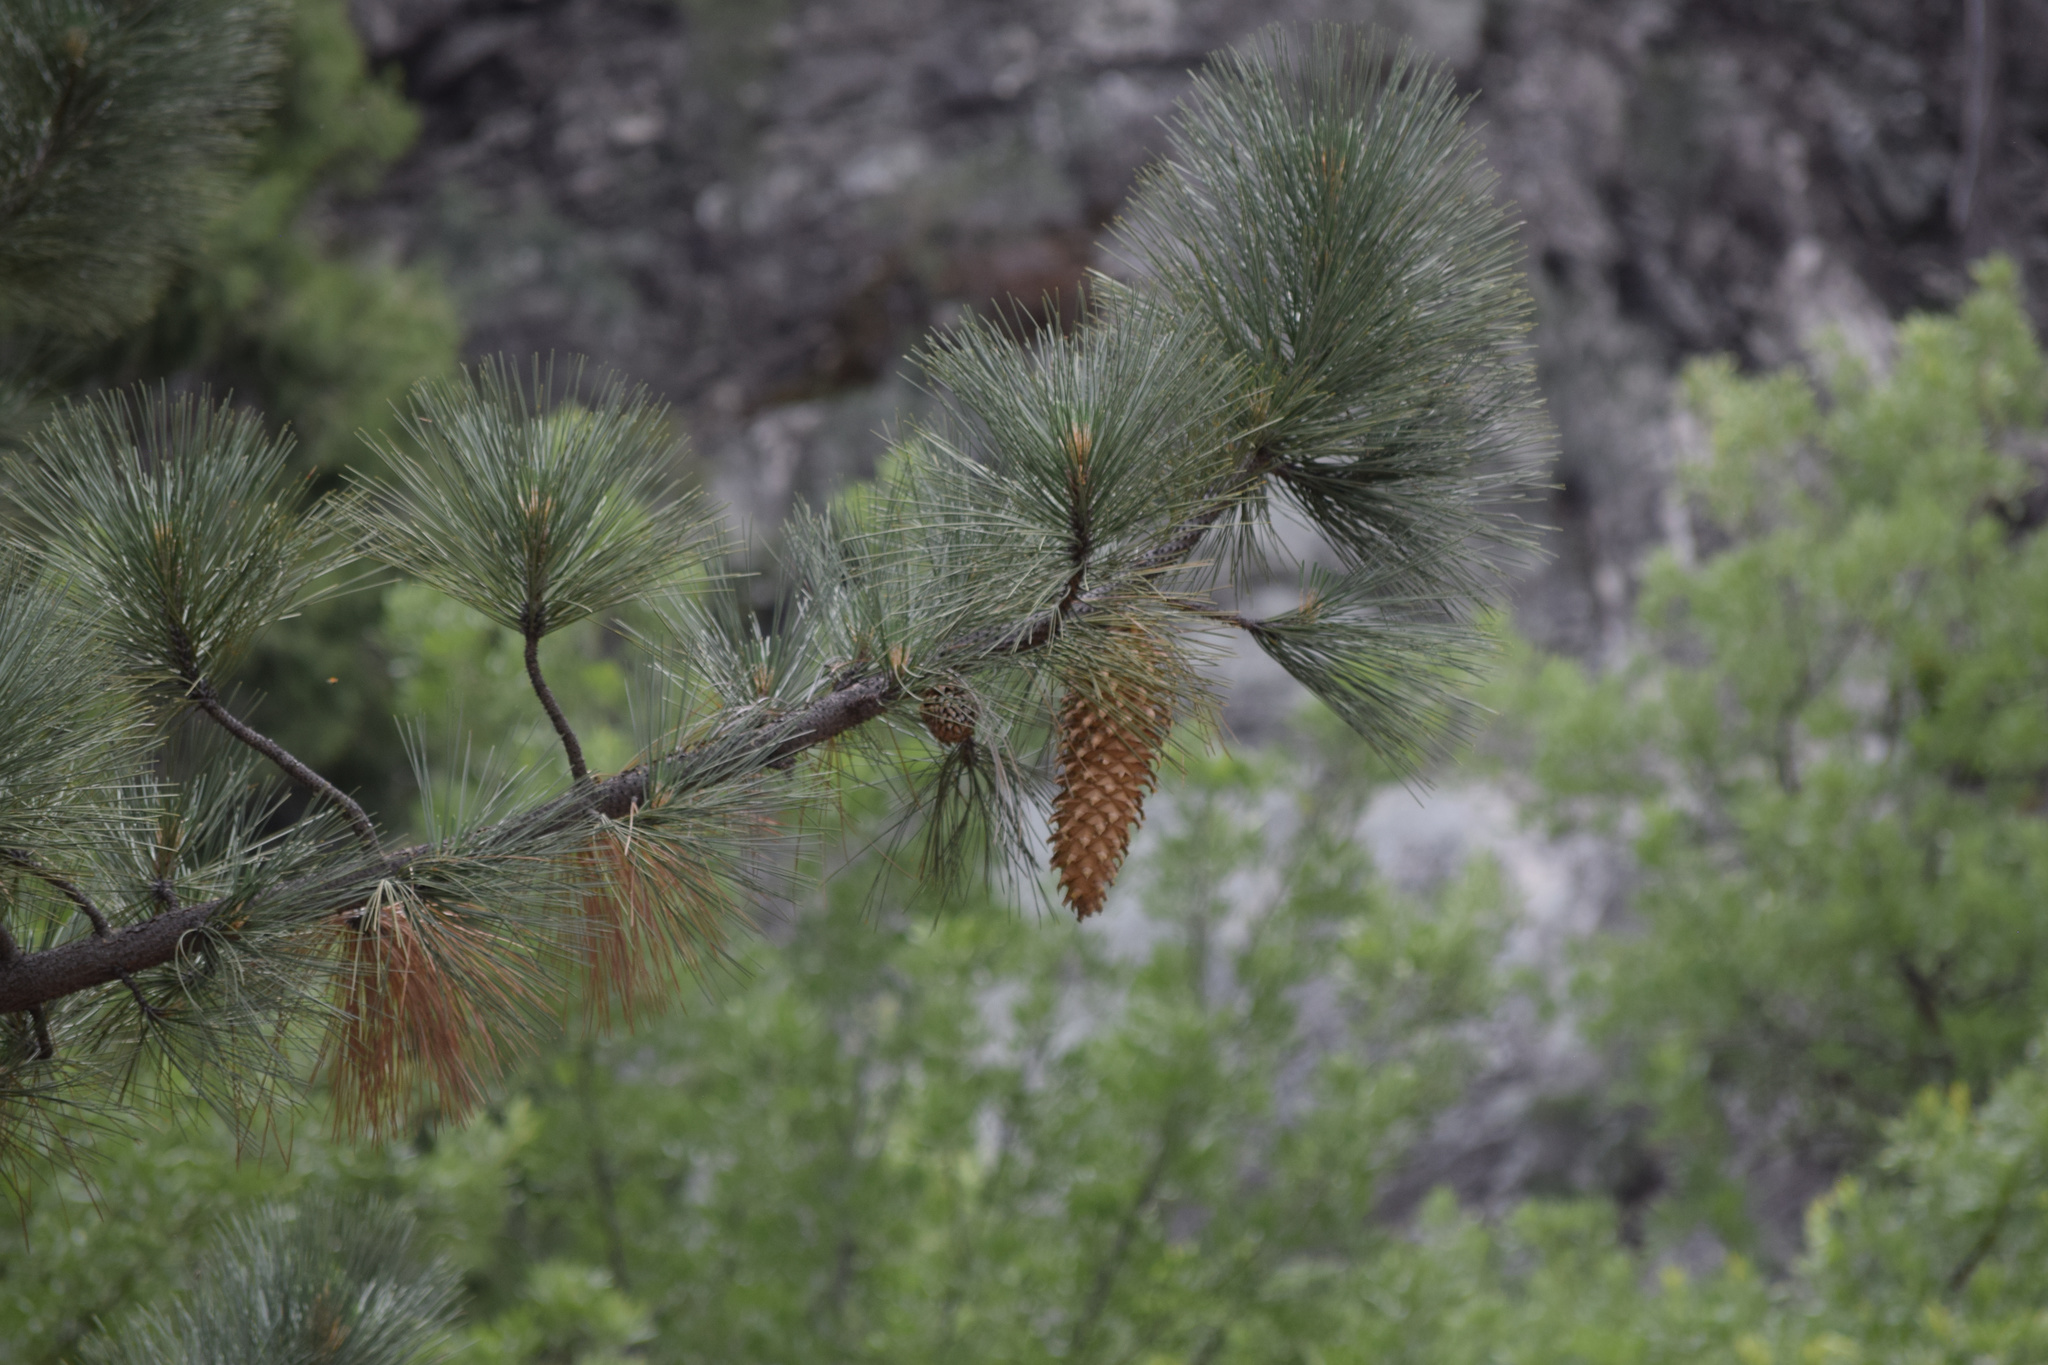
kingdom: Plantae
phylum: Tracheophyta
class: Pinopsida
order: Pinales
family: Pinaceae
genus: Pinus
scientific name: Pinus coulteri
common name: Coulter pine
